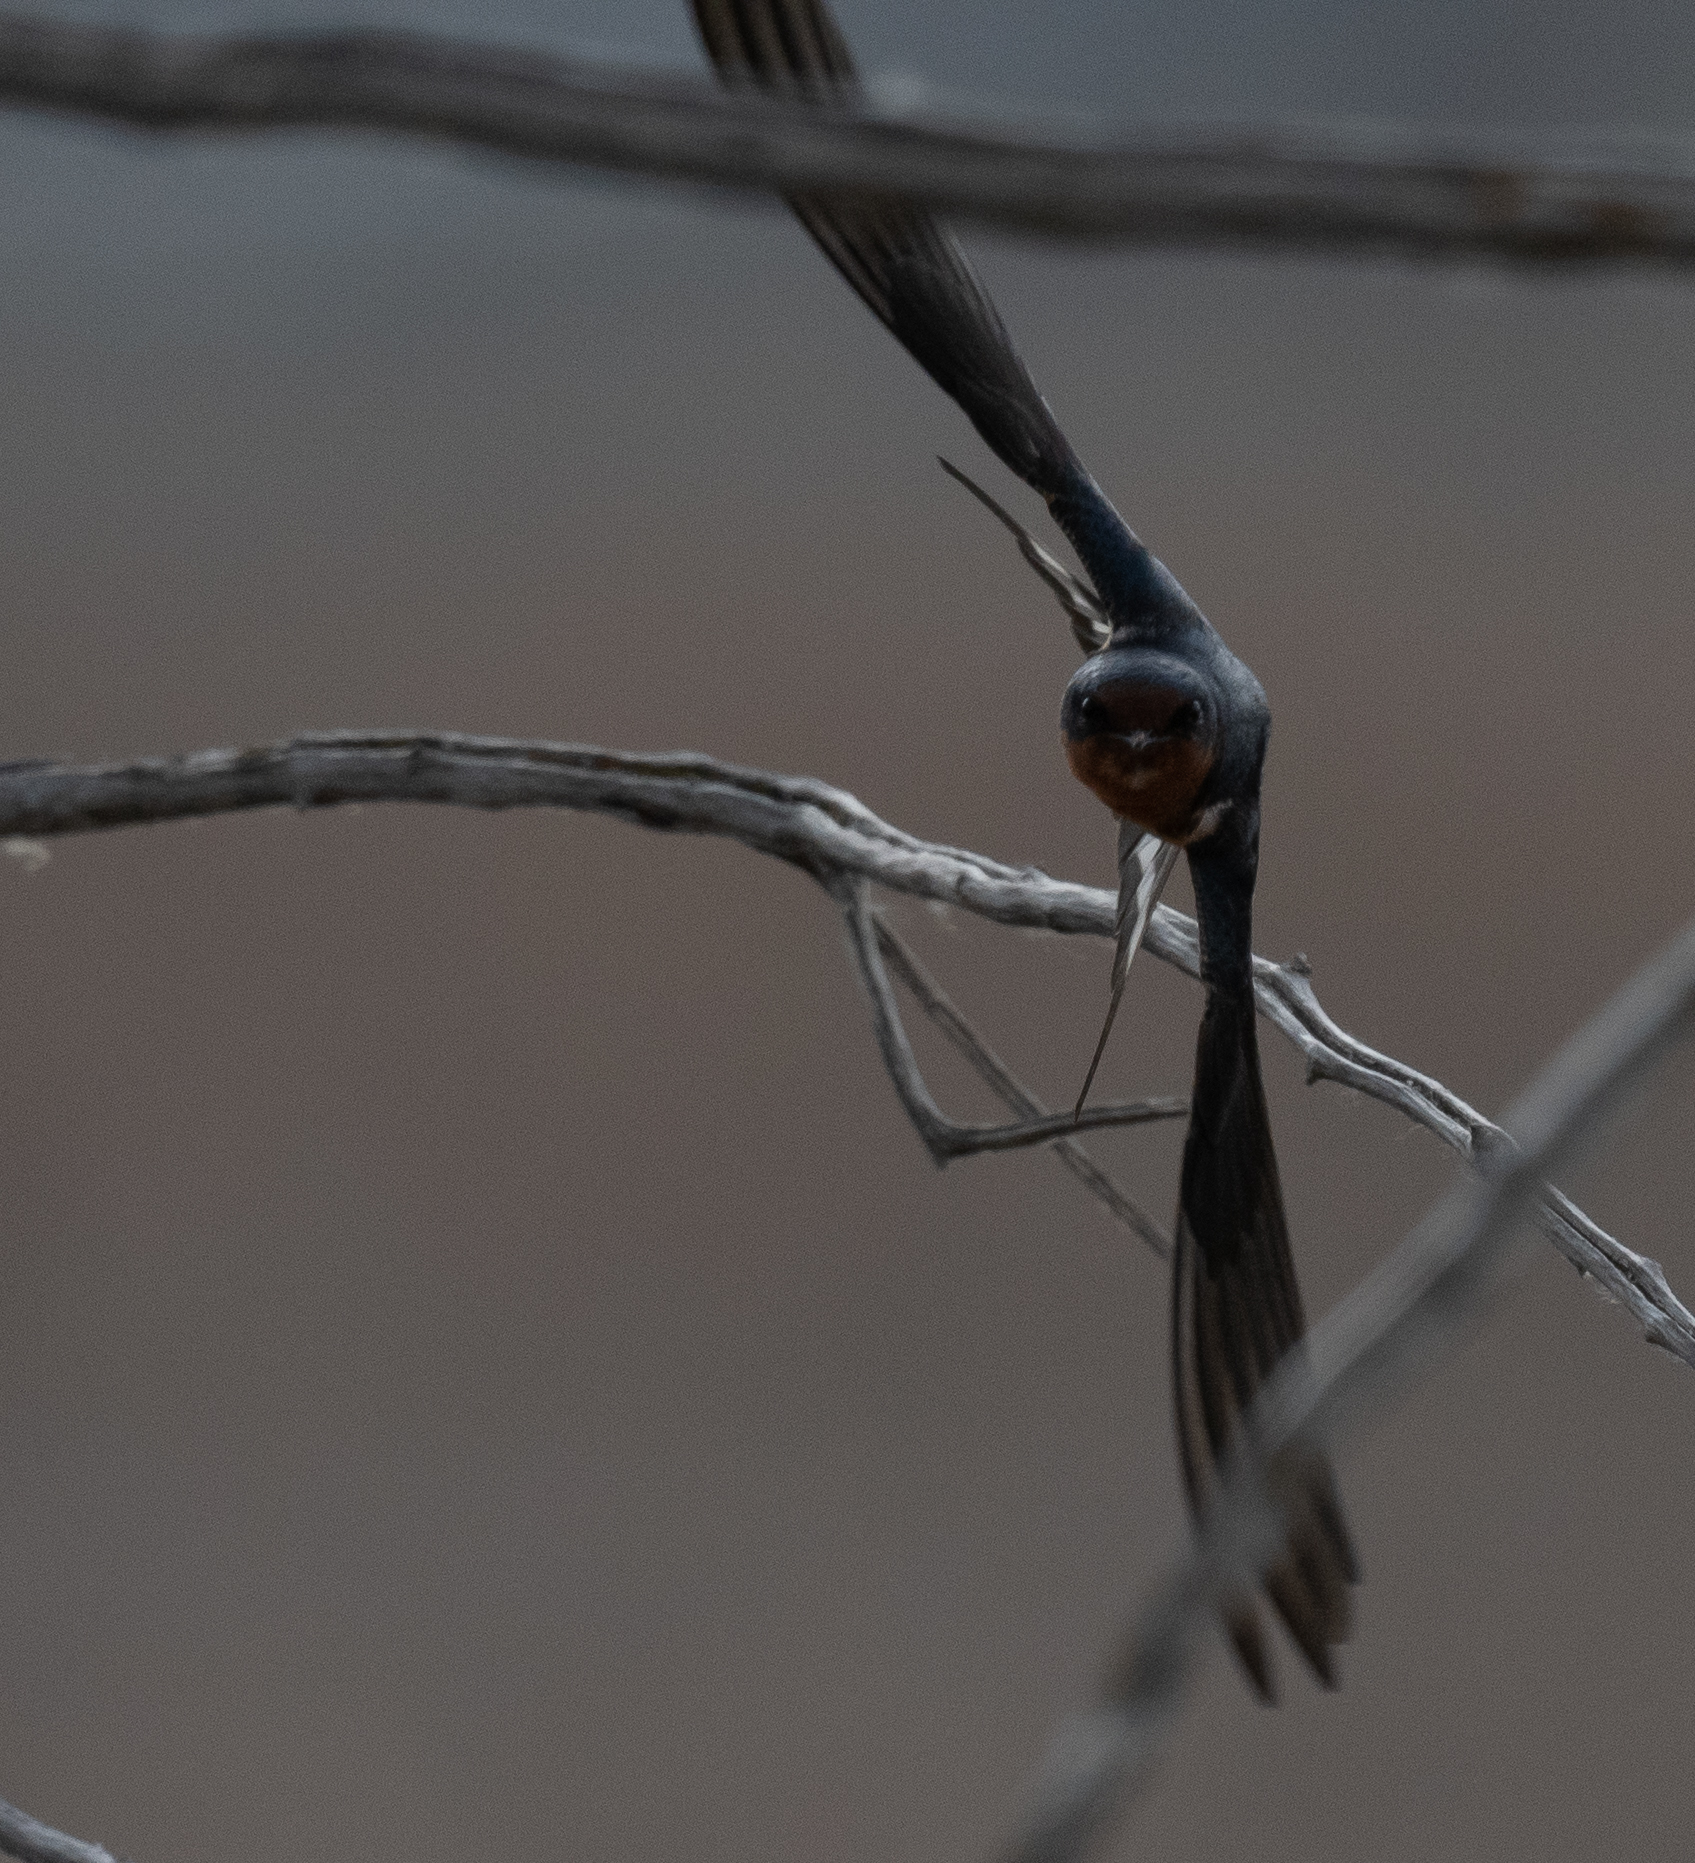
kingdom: Animalia
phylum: Chordata
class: Aves
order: Passeriformes
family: Hirundinidae
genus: Hirundo
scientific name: Hirundo rustica
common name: Barn swallow
